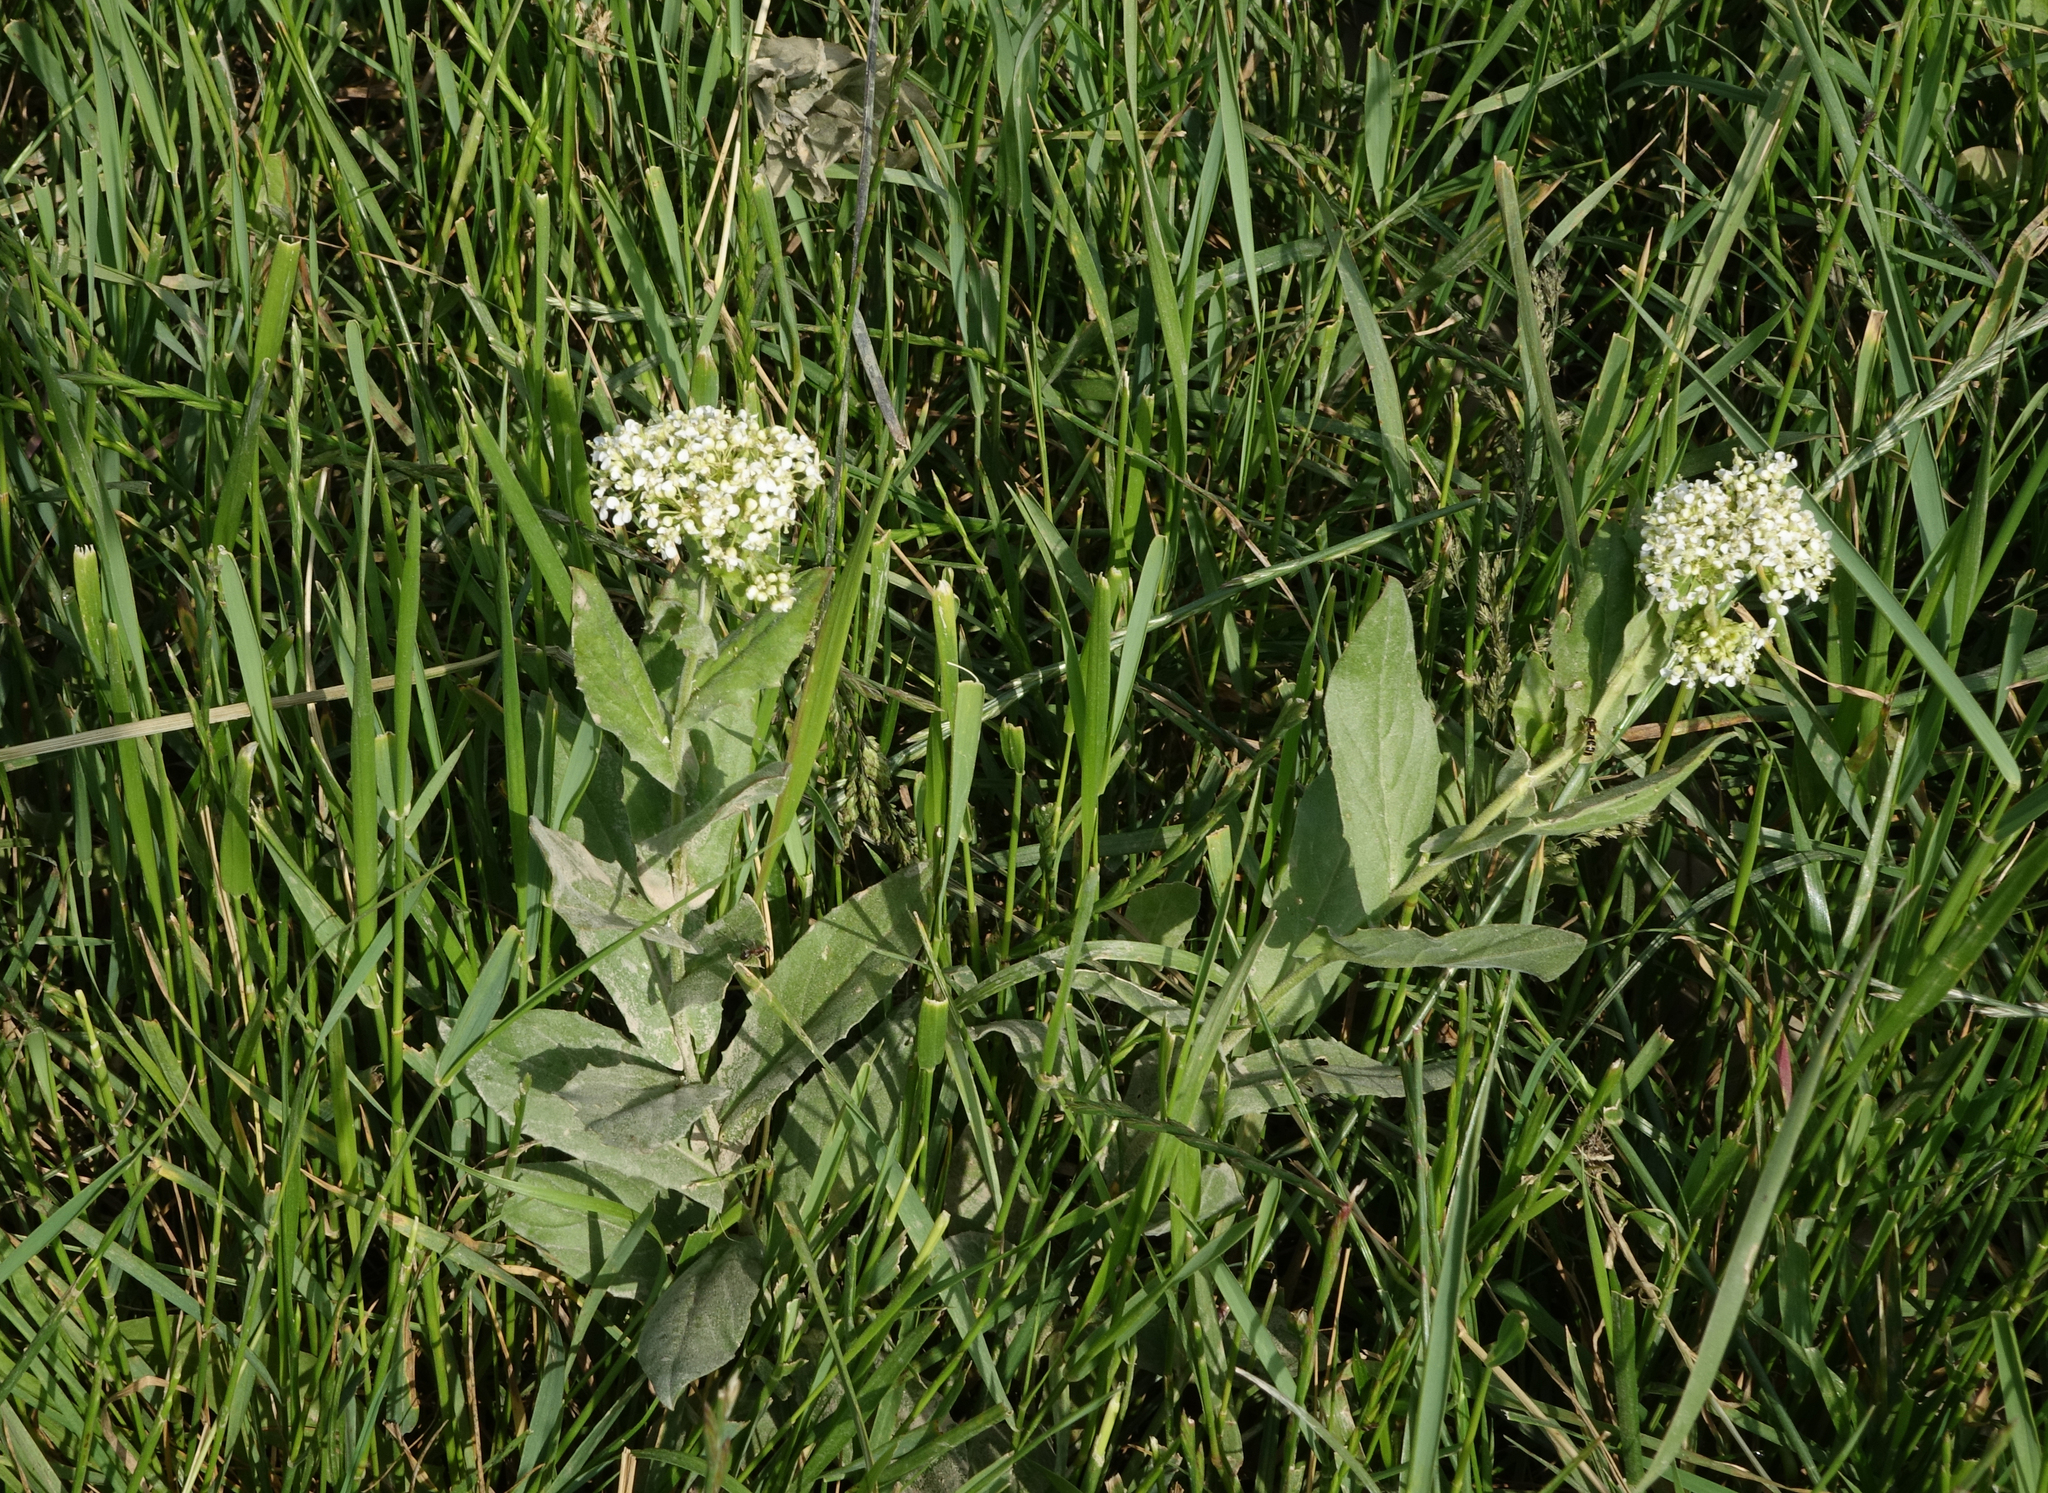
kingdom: Plantae
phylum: Tracheophyta
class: Magnoliopsida
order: Brassicales
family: Brassicaceae
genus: Lepidium
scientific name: Lepidium draba
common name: Hoary cress
